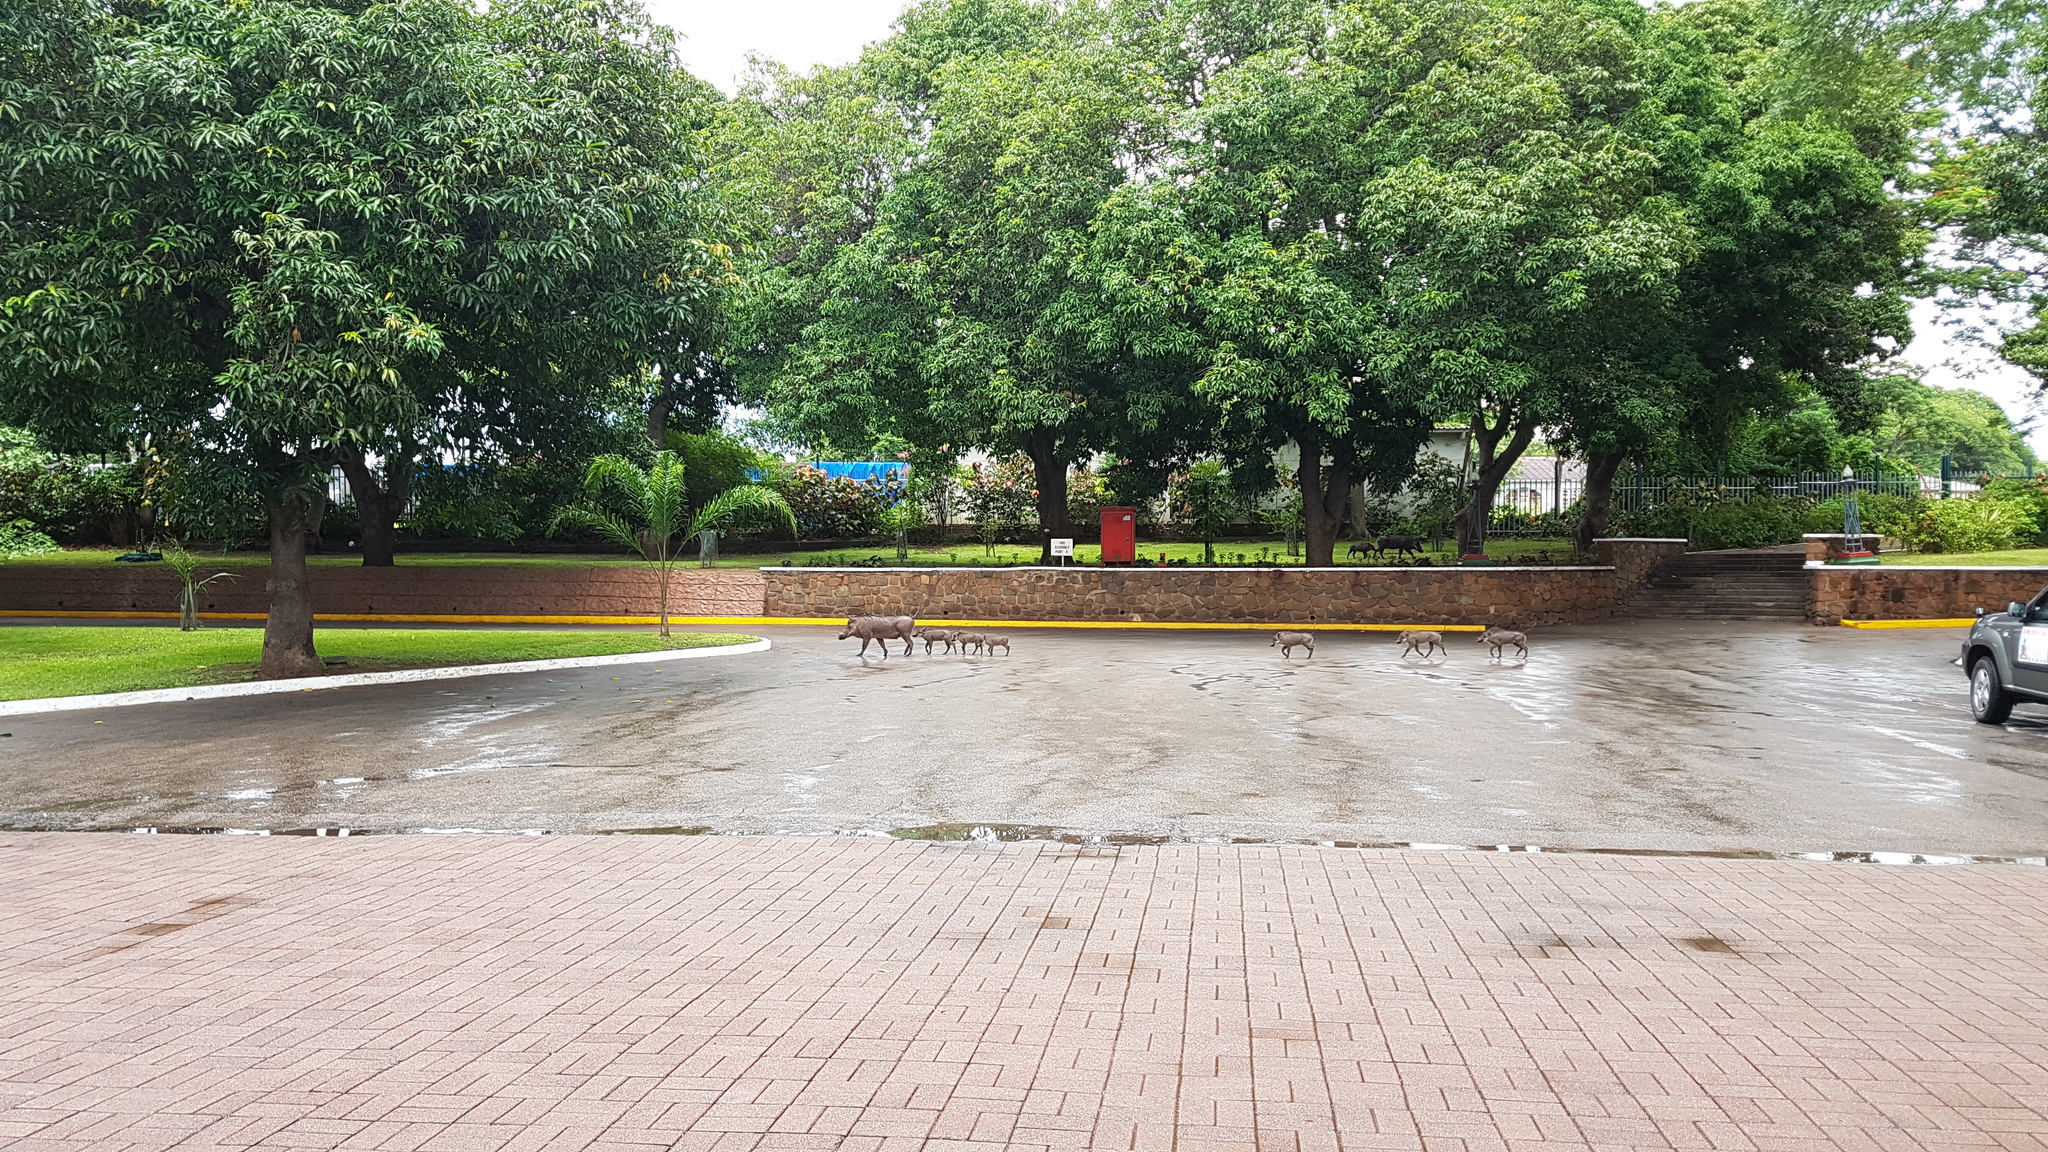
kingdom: Animalia
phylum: Chordata
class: Mammalia
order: Artiodactyla
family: Suidae
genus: Phacochoerus
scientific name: Phacochoerus africanus
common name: Common warthog
